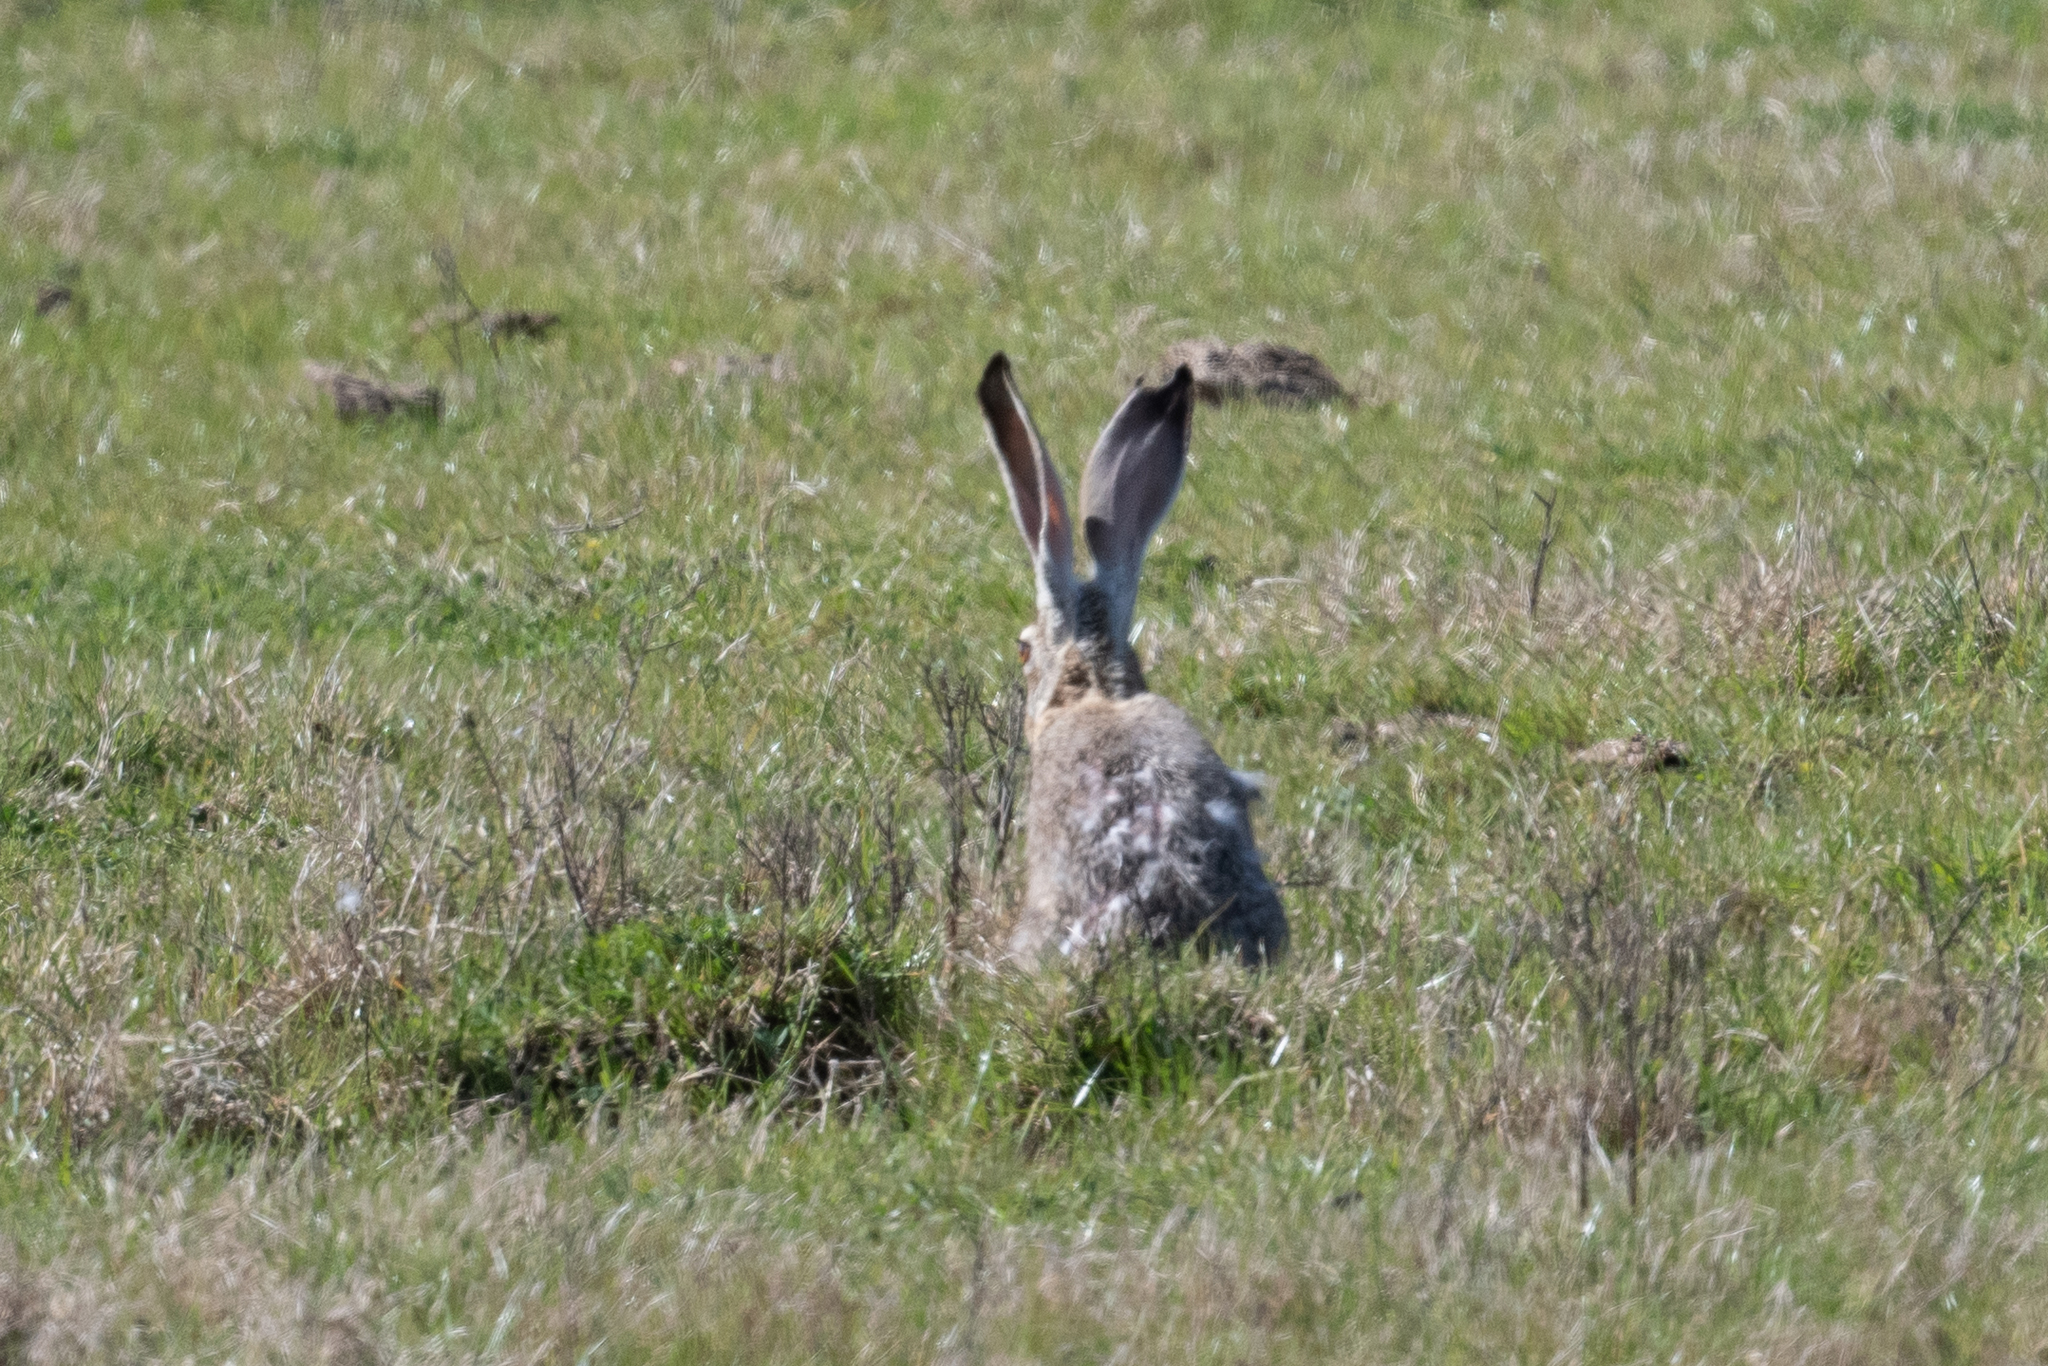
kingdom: Animalia
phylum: Chordata
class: Mammalia
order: Lagomorpha
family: Leporidae
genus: Lepus
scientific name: Lepus californicus
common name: Black-tailed jackrabbit
